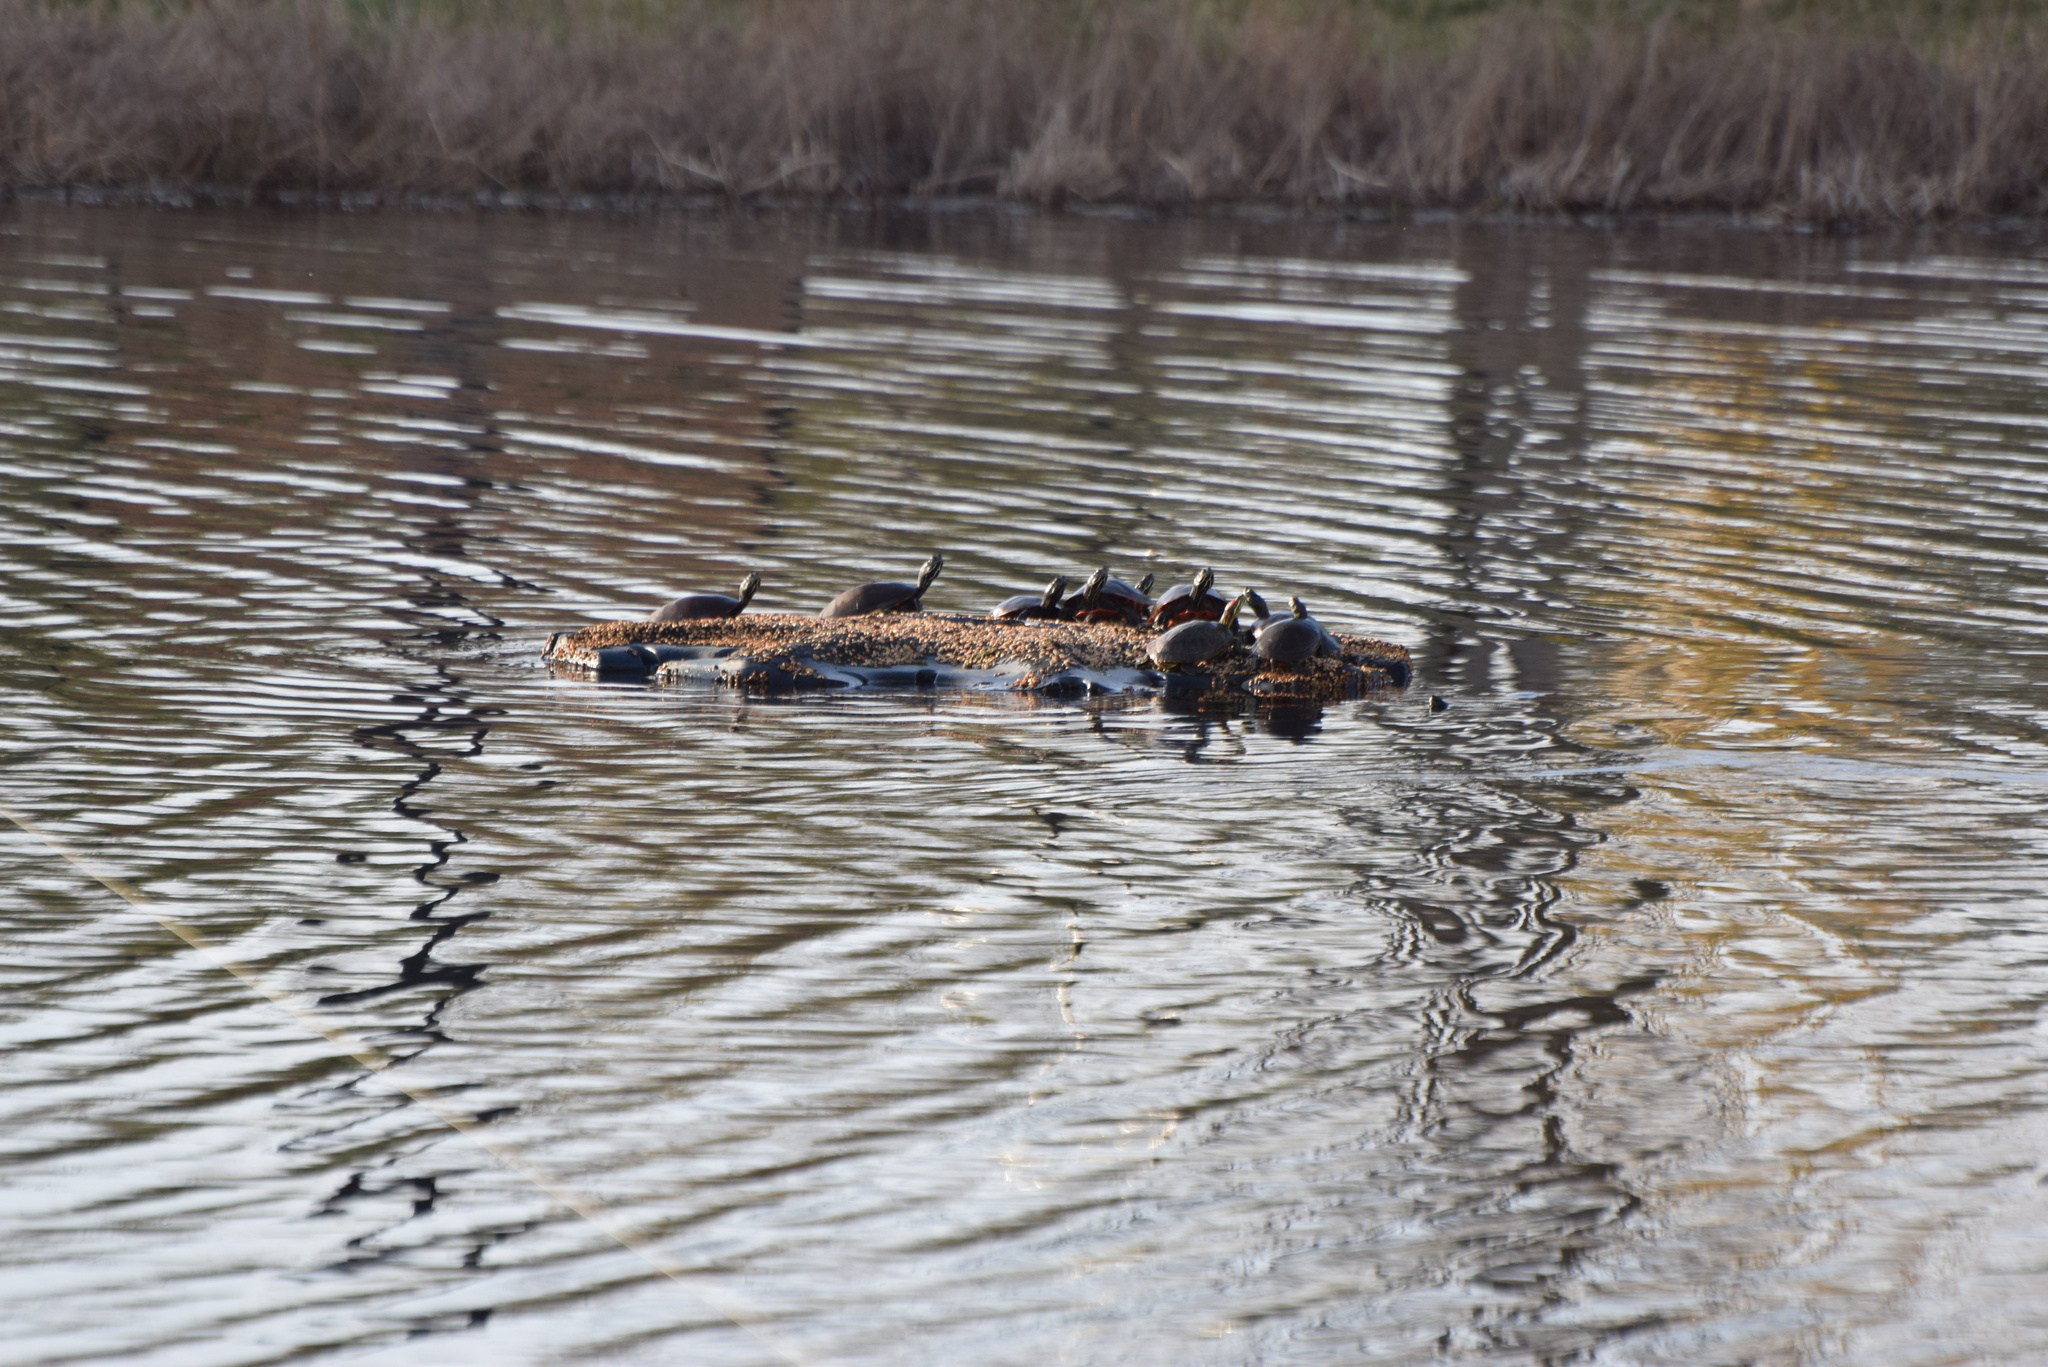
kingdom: Animalia
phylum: Chordata
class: Testudines
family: Emydidae
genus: Trachemys
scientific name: Trachemys scripta
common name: Slider
